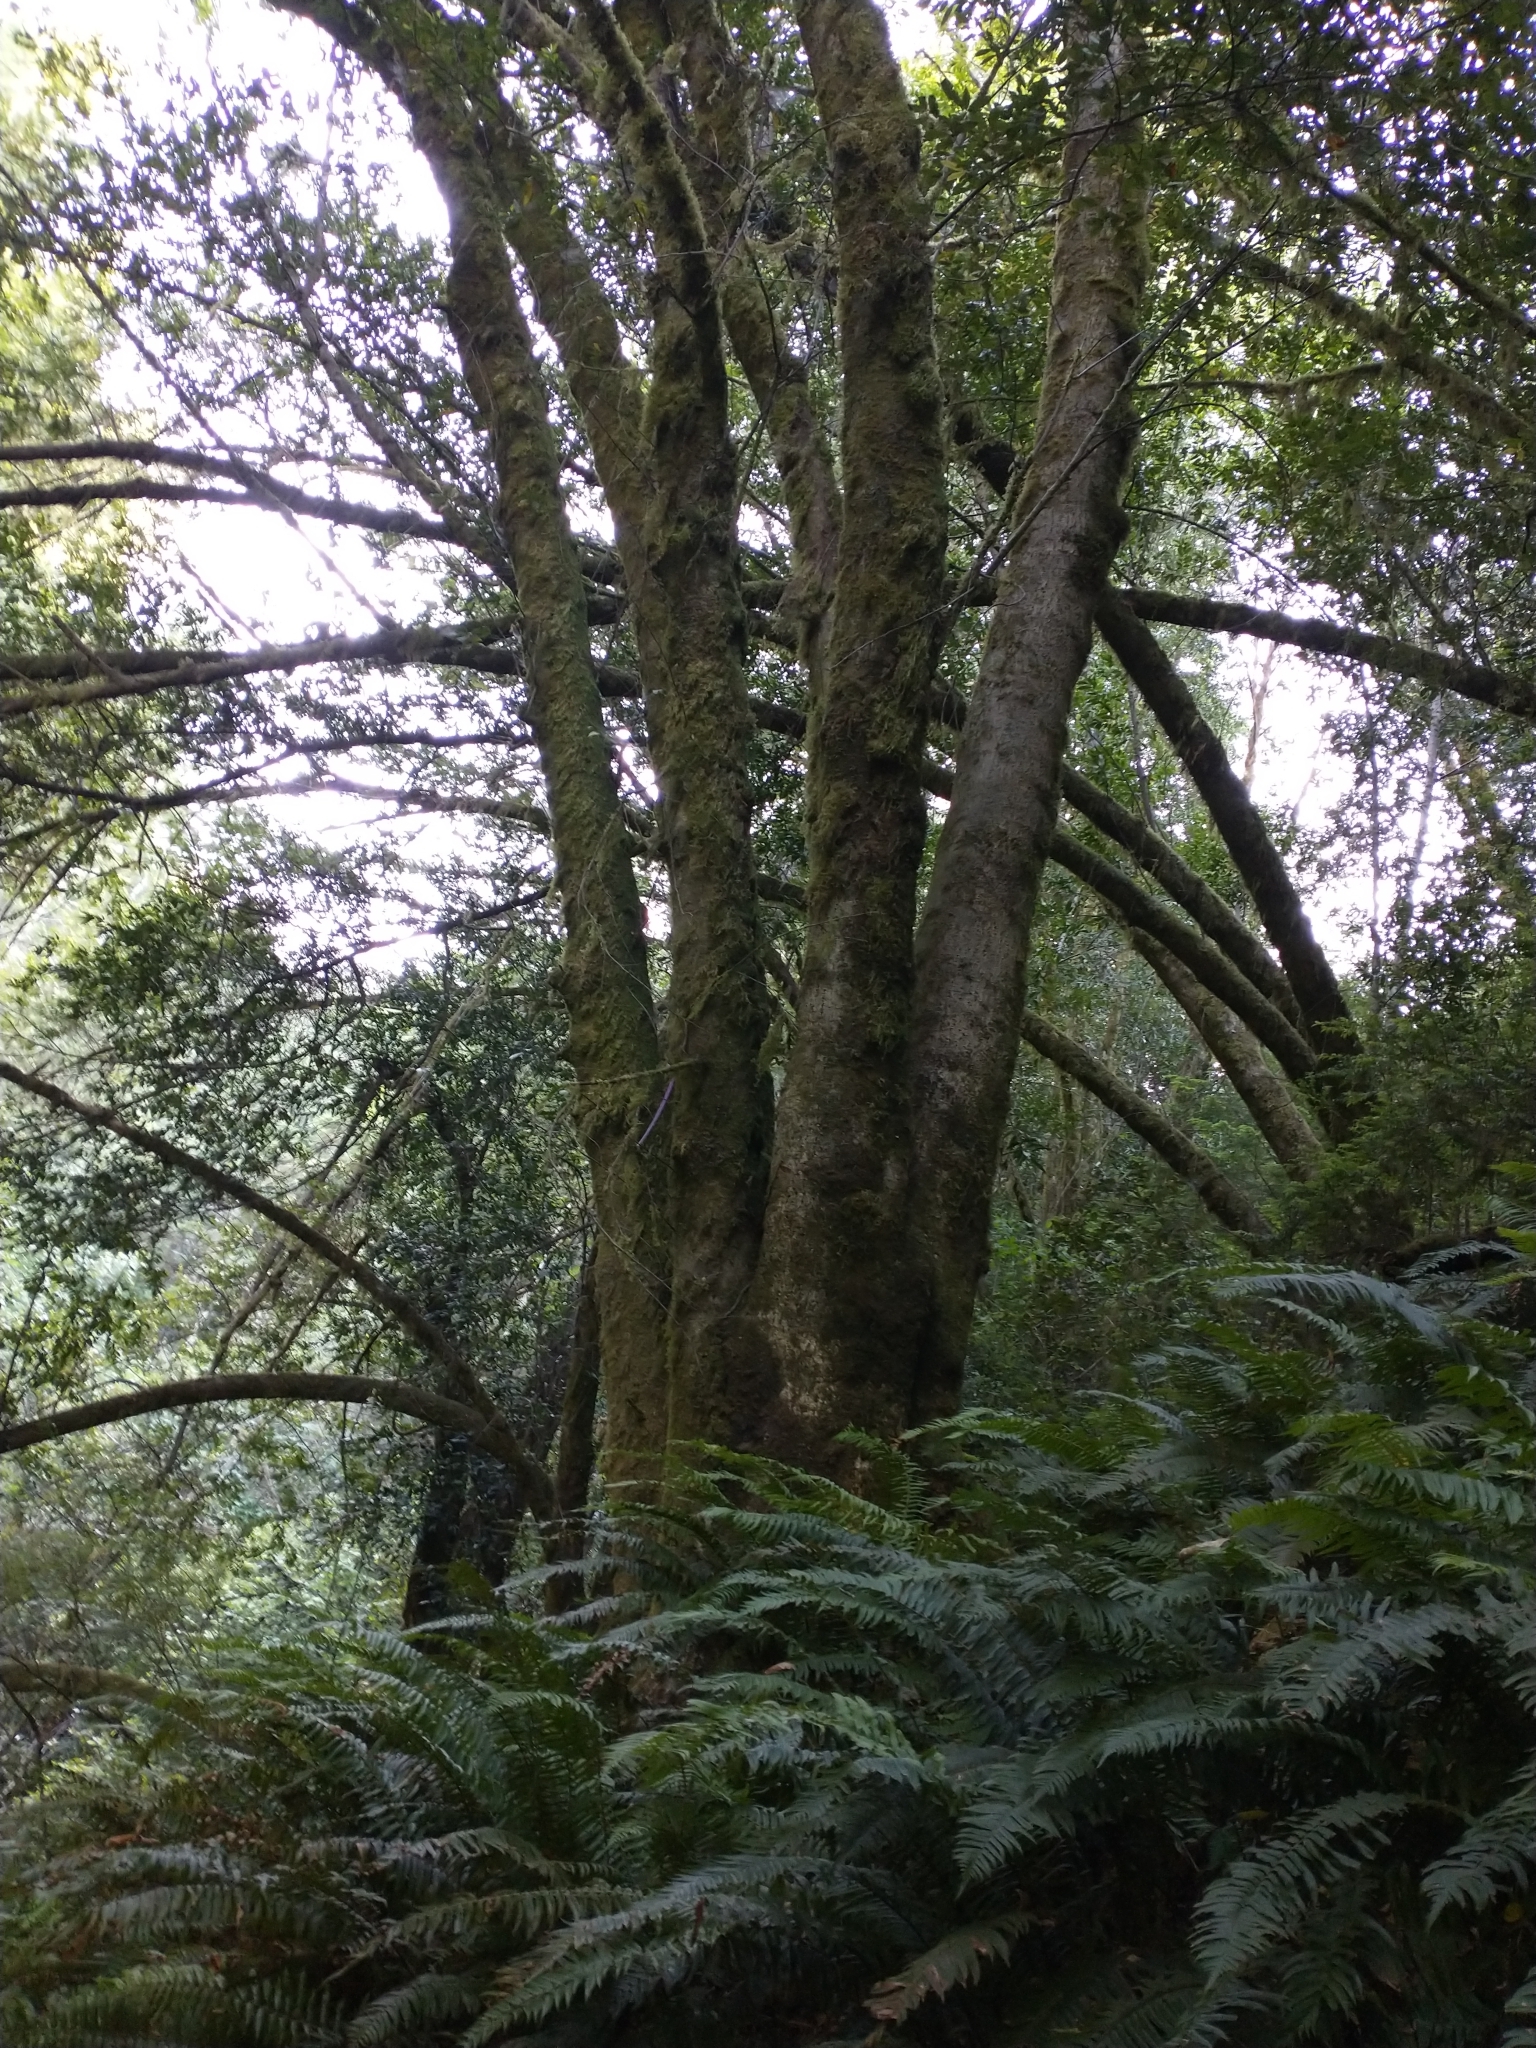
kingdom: Plantae
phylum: Tracheophyta
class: Magnoliopsida
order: Laurales
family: Lauraceae
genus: Umbellularia
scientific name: Umbellularia californica
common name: California bay
